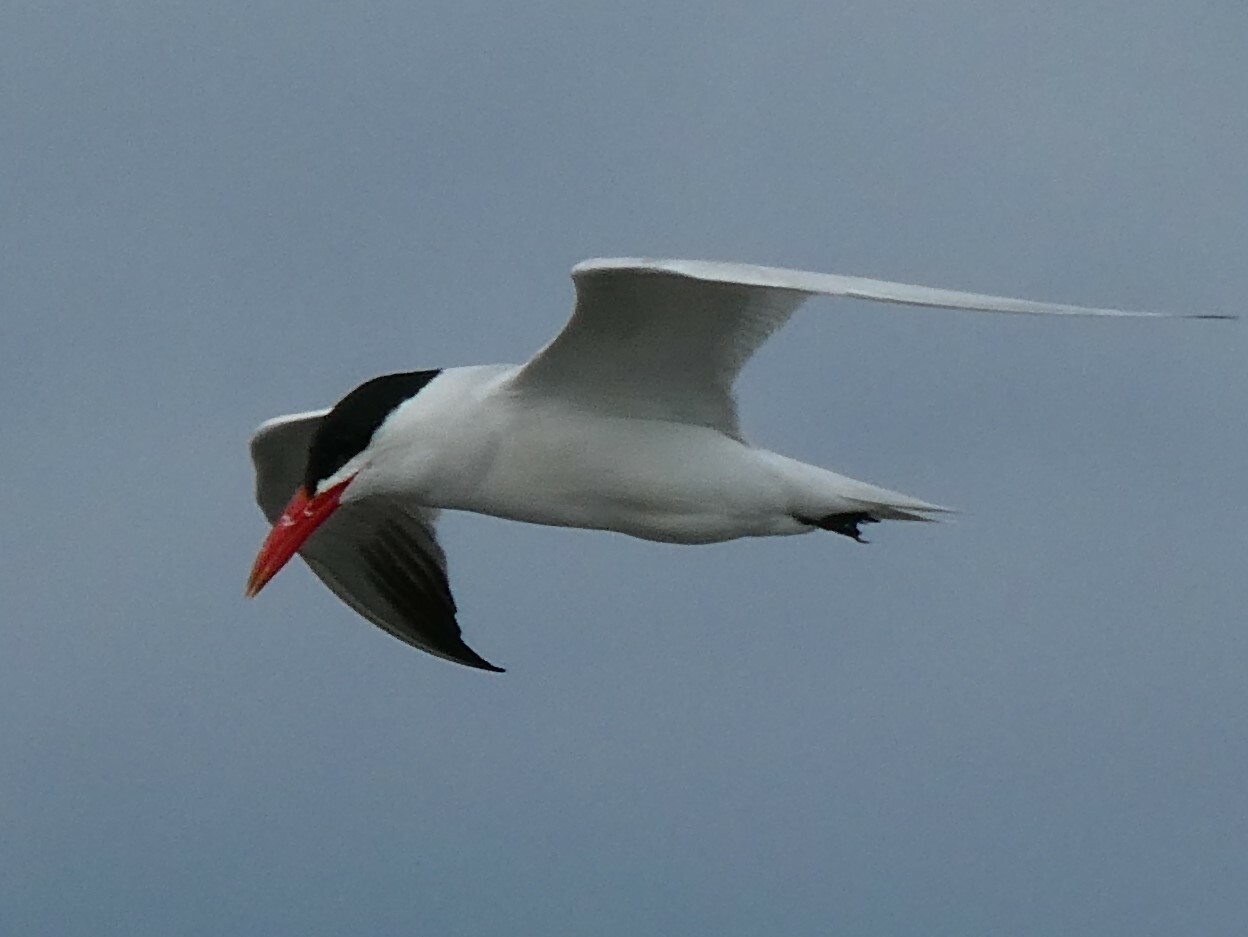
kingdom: Animalia
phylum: Chordata
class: Aves
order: Charadriiformes
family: Laridae
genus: Hydroprogne
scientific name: Hydroprogne caspia
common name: Caspian tern
